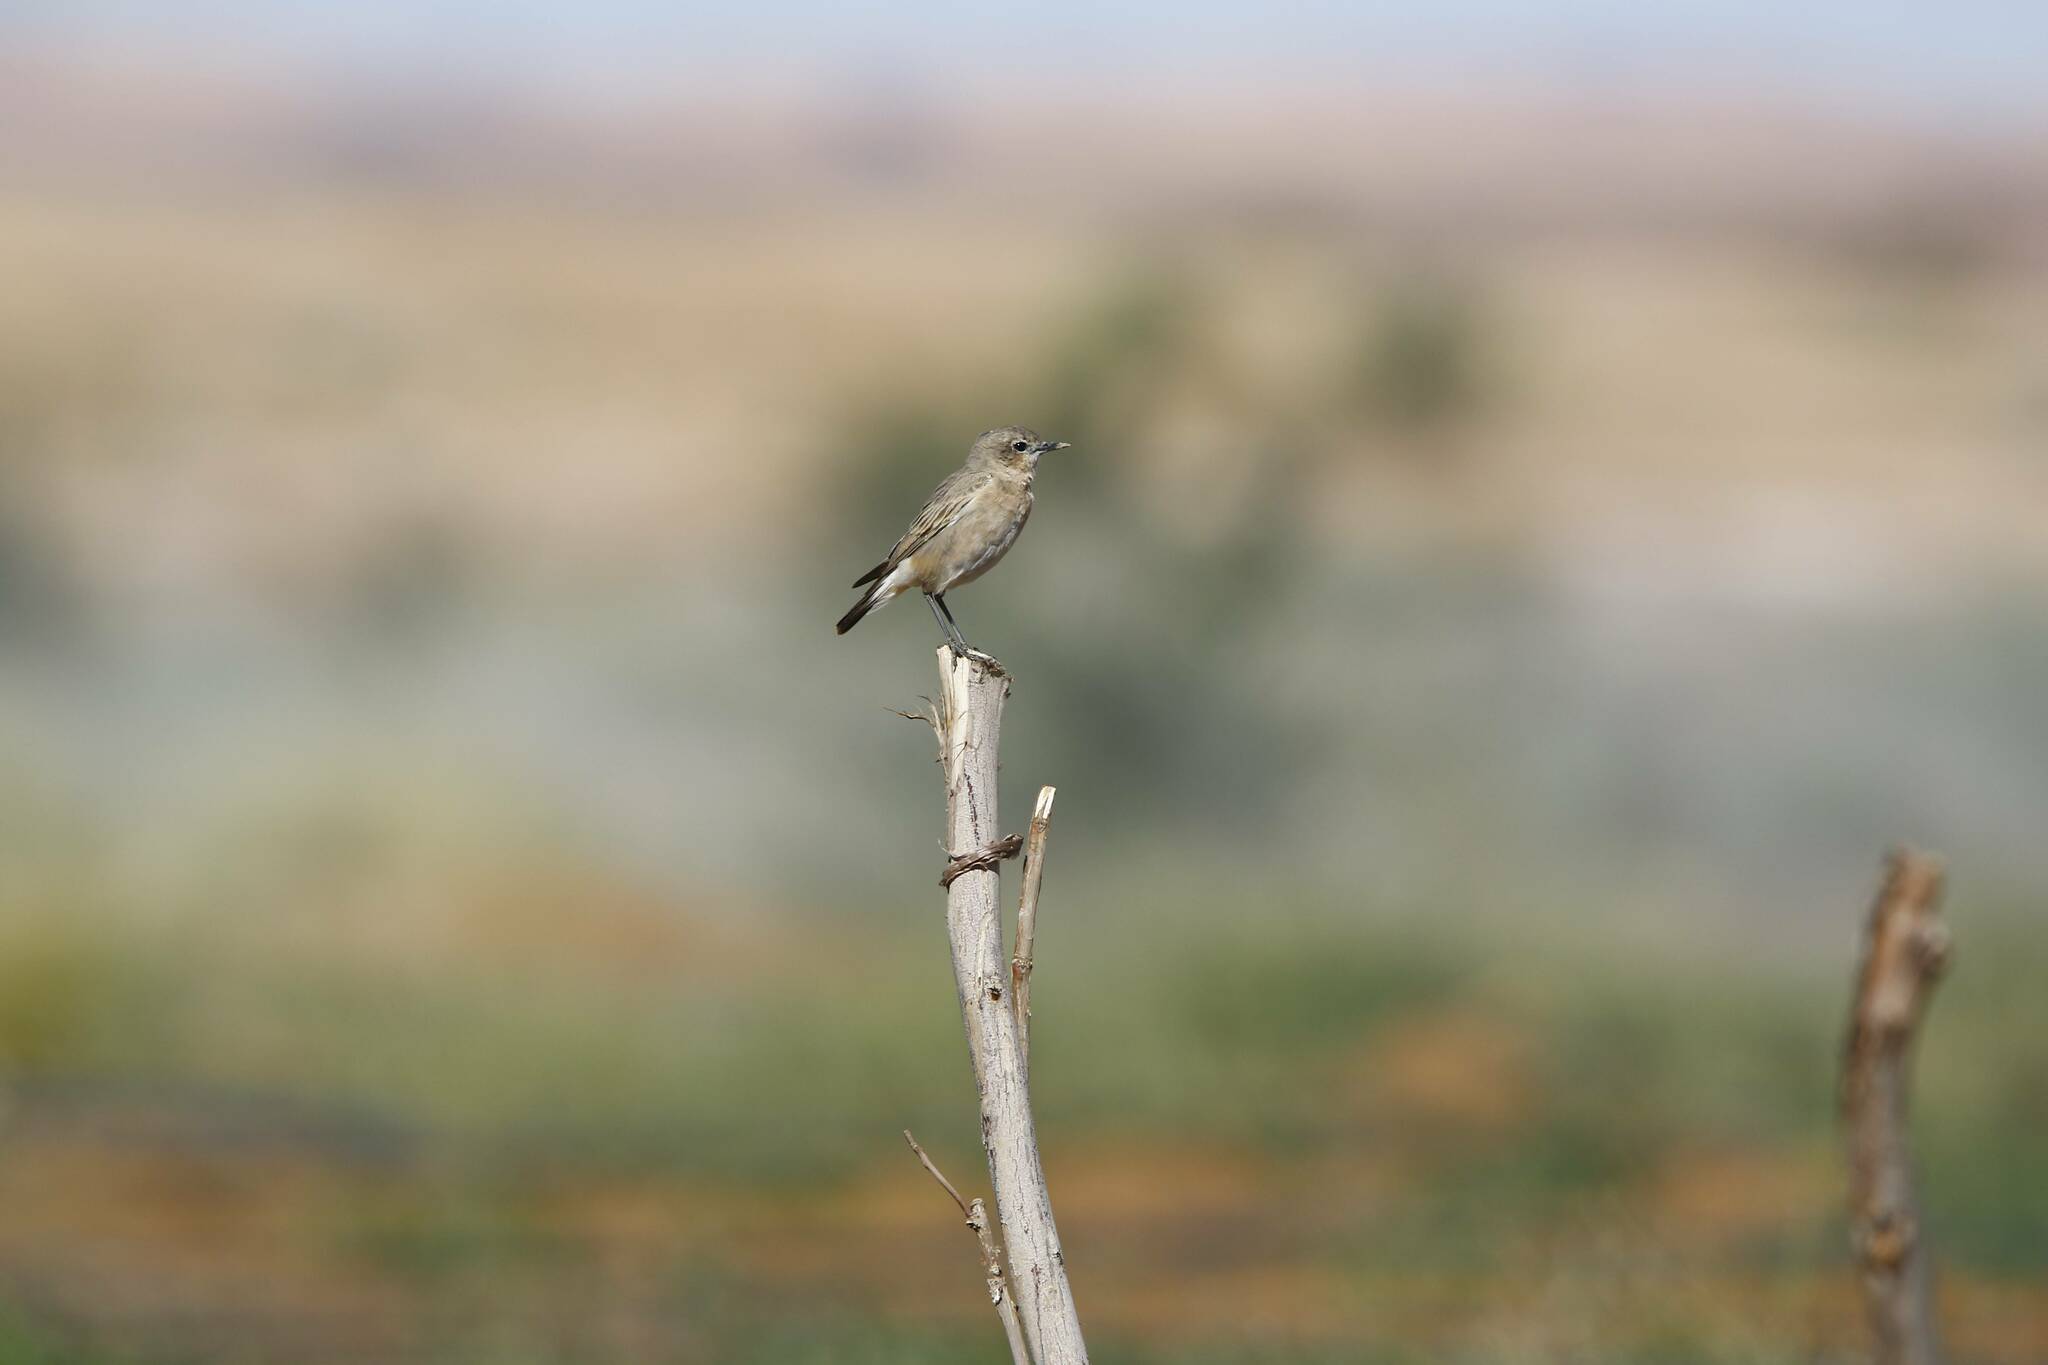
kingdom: Animalia
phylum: Chordata
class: Aves
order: Passeriformes
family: Muscicapidae
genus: Oenanthe
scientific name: Oenanthe isabellina
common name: Isabelline wheatear
